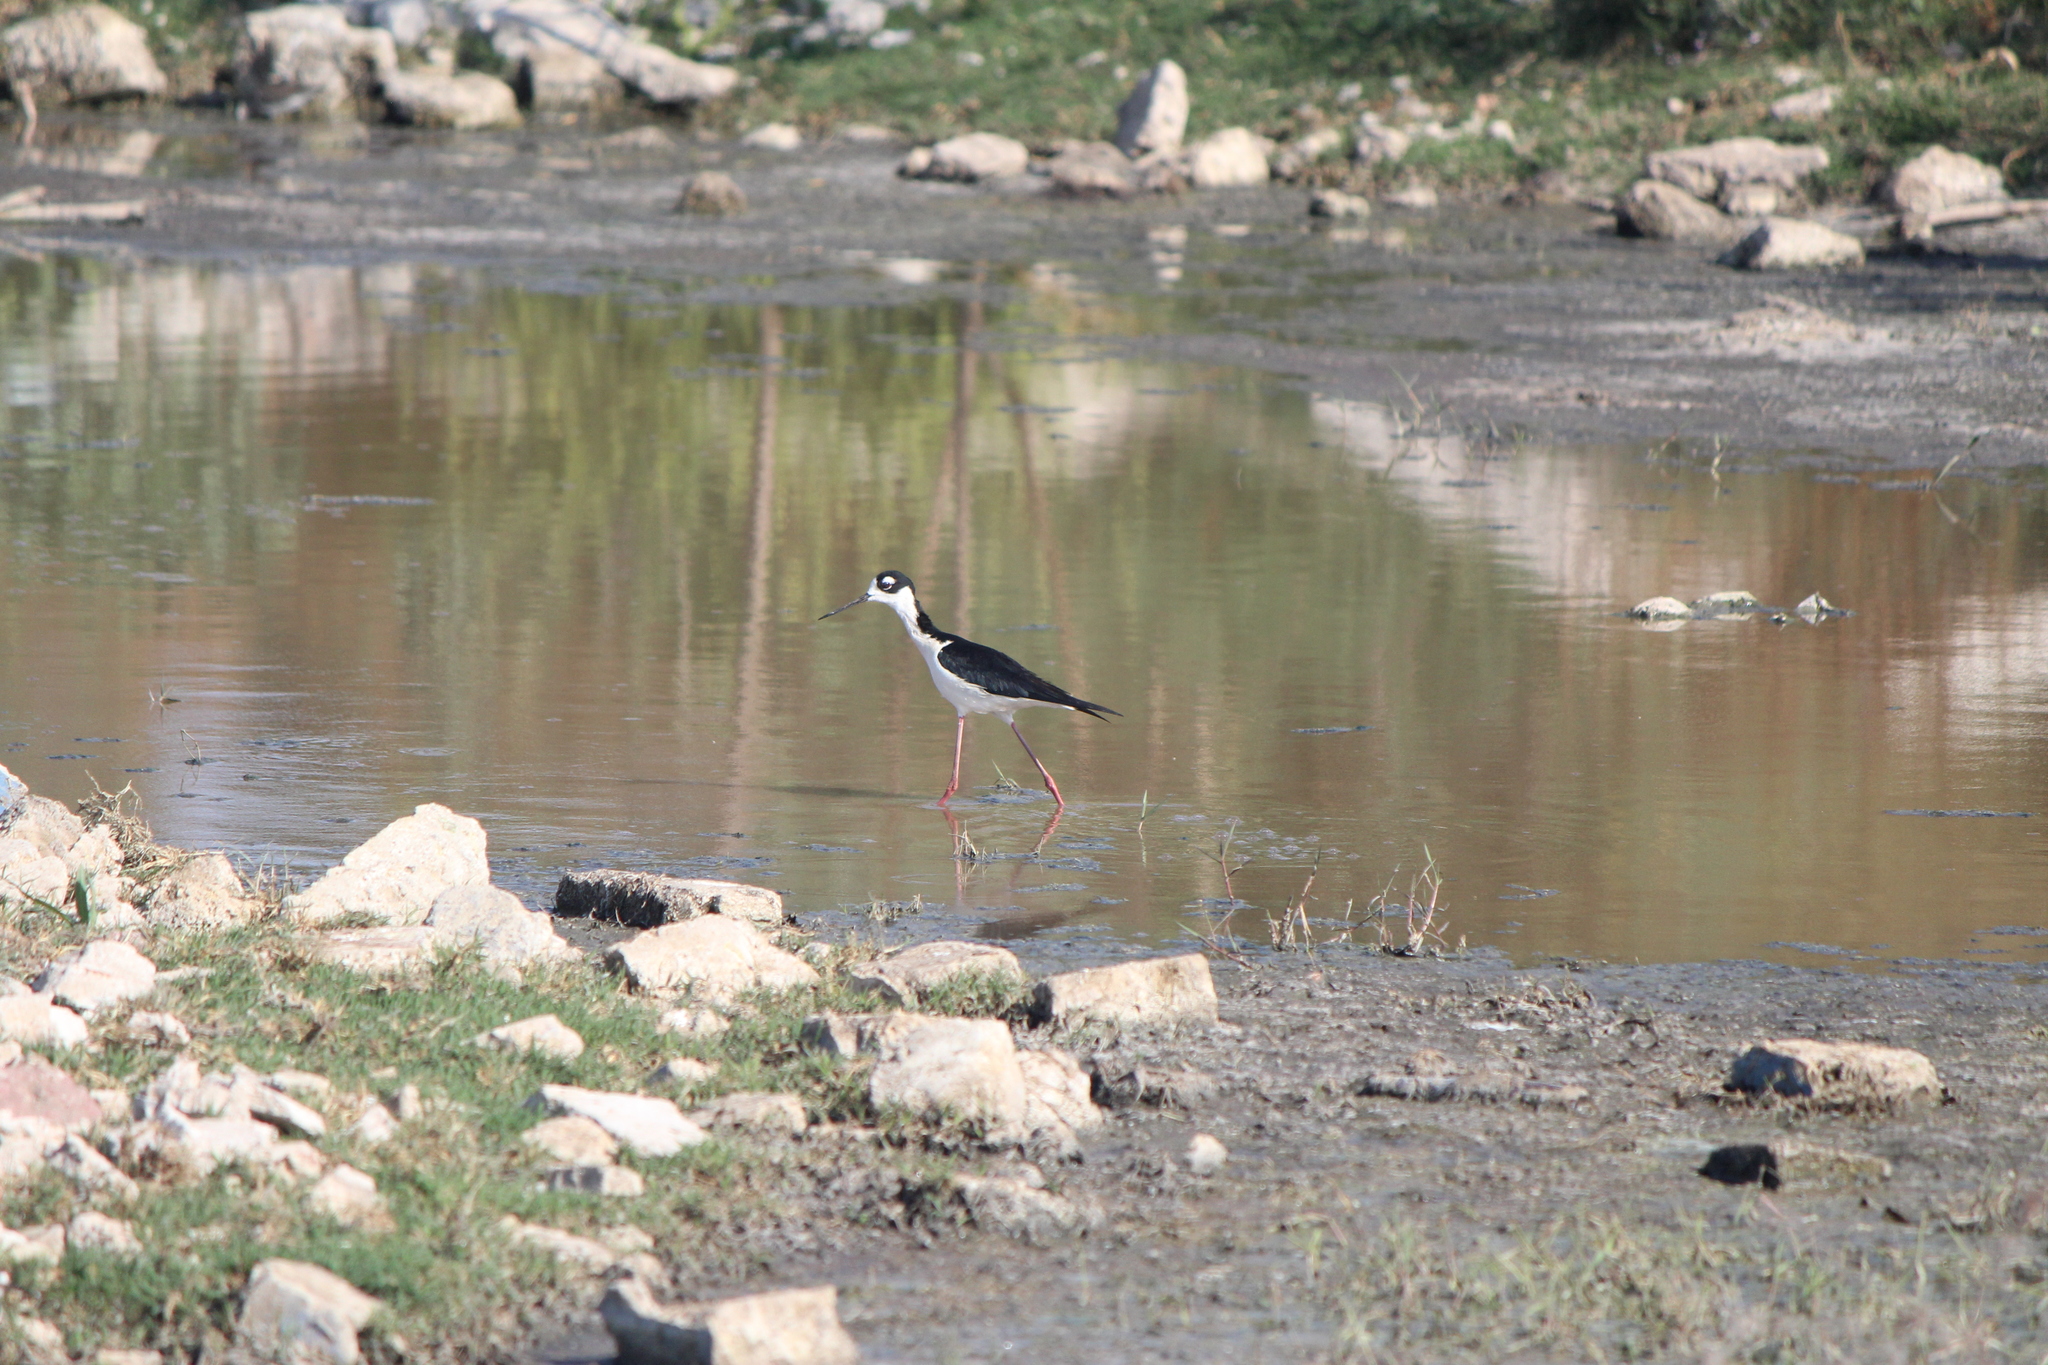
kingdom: Animalia
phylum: Chordata
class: Aves
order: Charadriiformes
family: Recurvirostridae
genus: Himantopus
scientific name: Himantopus mexicanus
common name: Black-necked stilt
